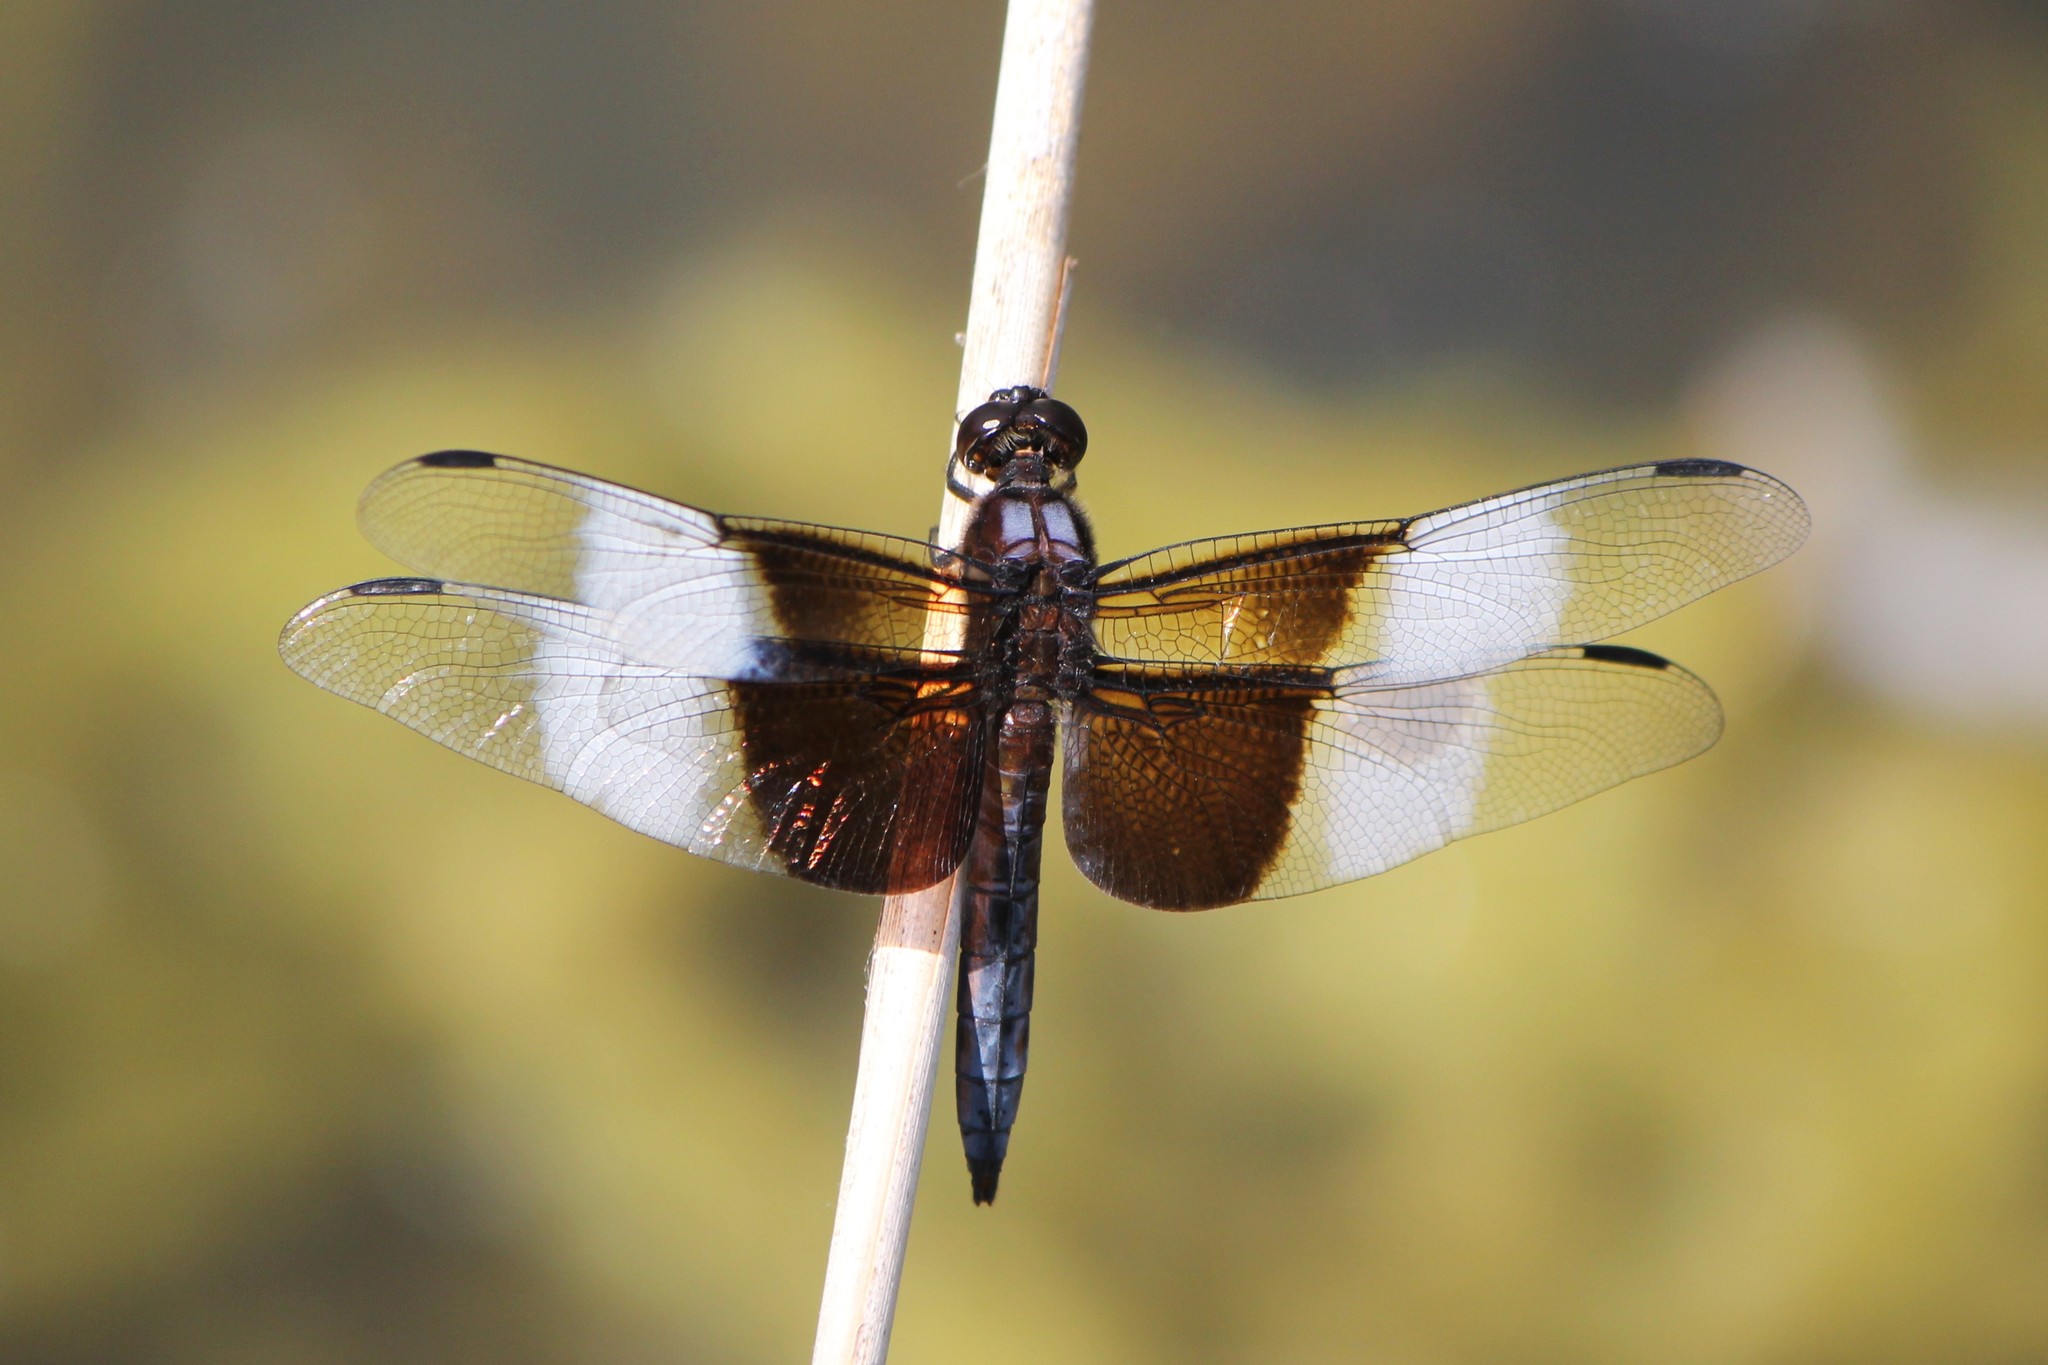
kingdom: Animalia
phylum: Arthropoda
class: Insecta
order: Odonata
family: Libellulidae
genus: Libellula
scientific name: Libellula luctuosa
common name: Widow skimmer
